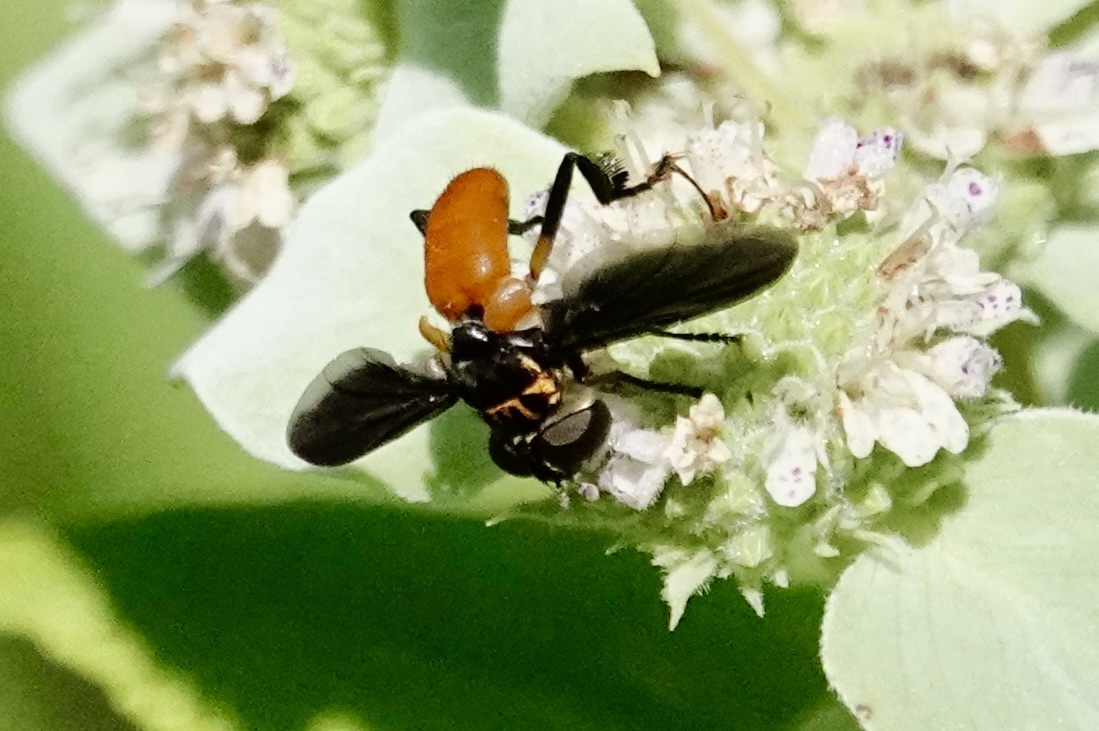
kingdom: Animalia
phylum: Arthropoda
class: Insecta
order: Diptera
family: Tachinidae
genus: Trichopoda
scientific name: Trichopoda pennipes
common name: Tachinid fly
